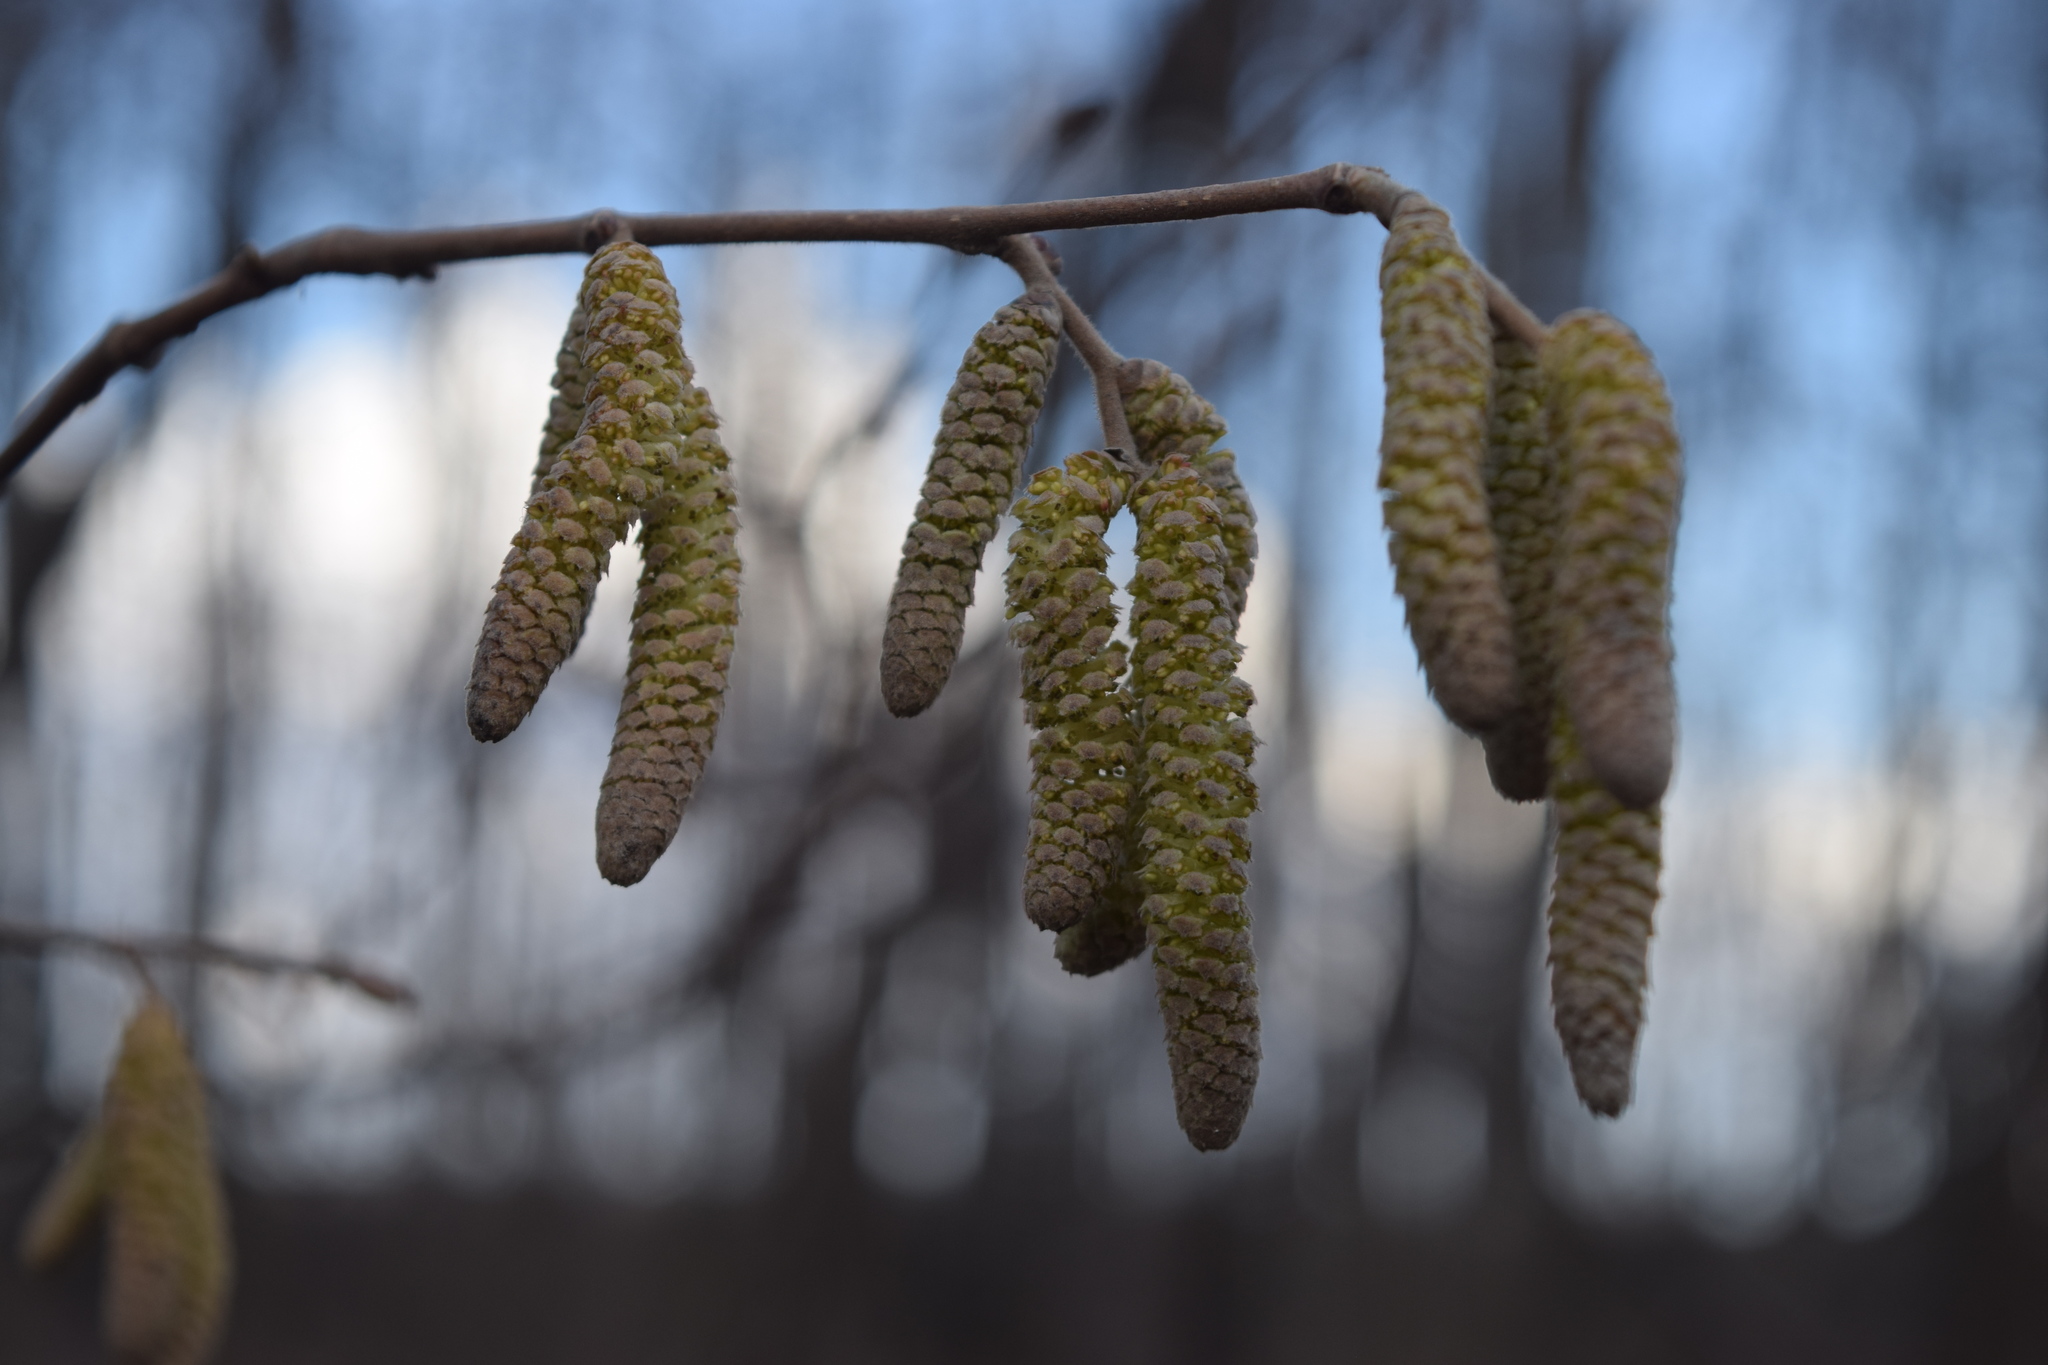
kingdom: Plantae
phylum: Tracheophyta
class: Magnoliopsida
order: Fagales
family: Betulaceae
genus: Corylus
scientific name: Corylus avellana
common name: European hazel
